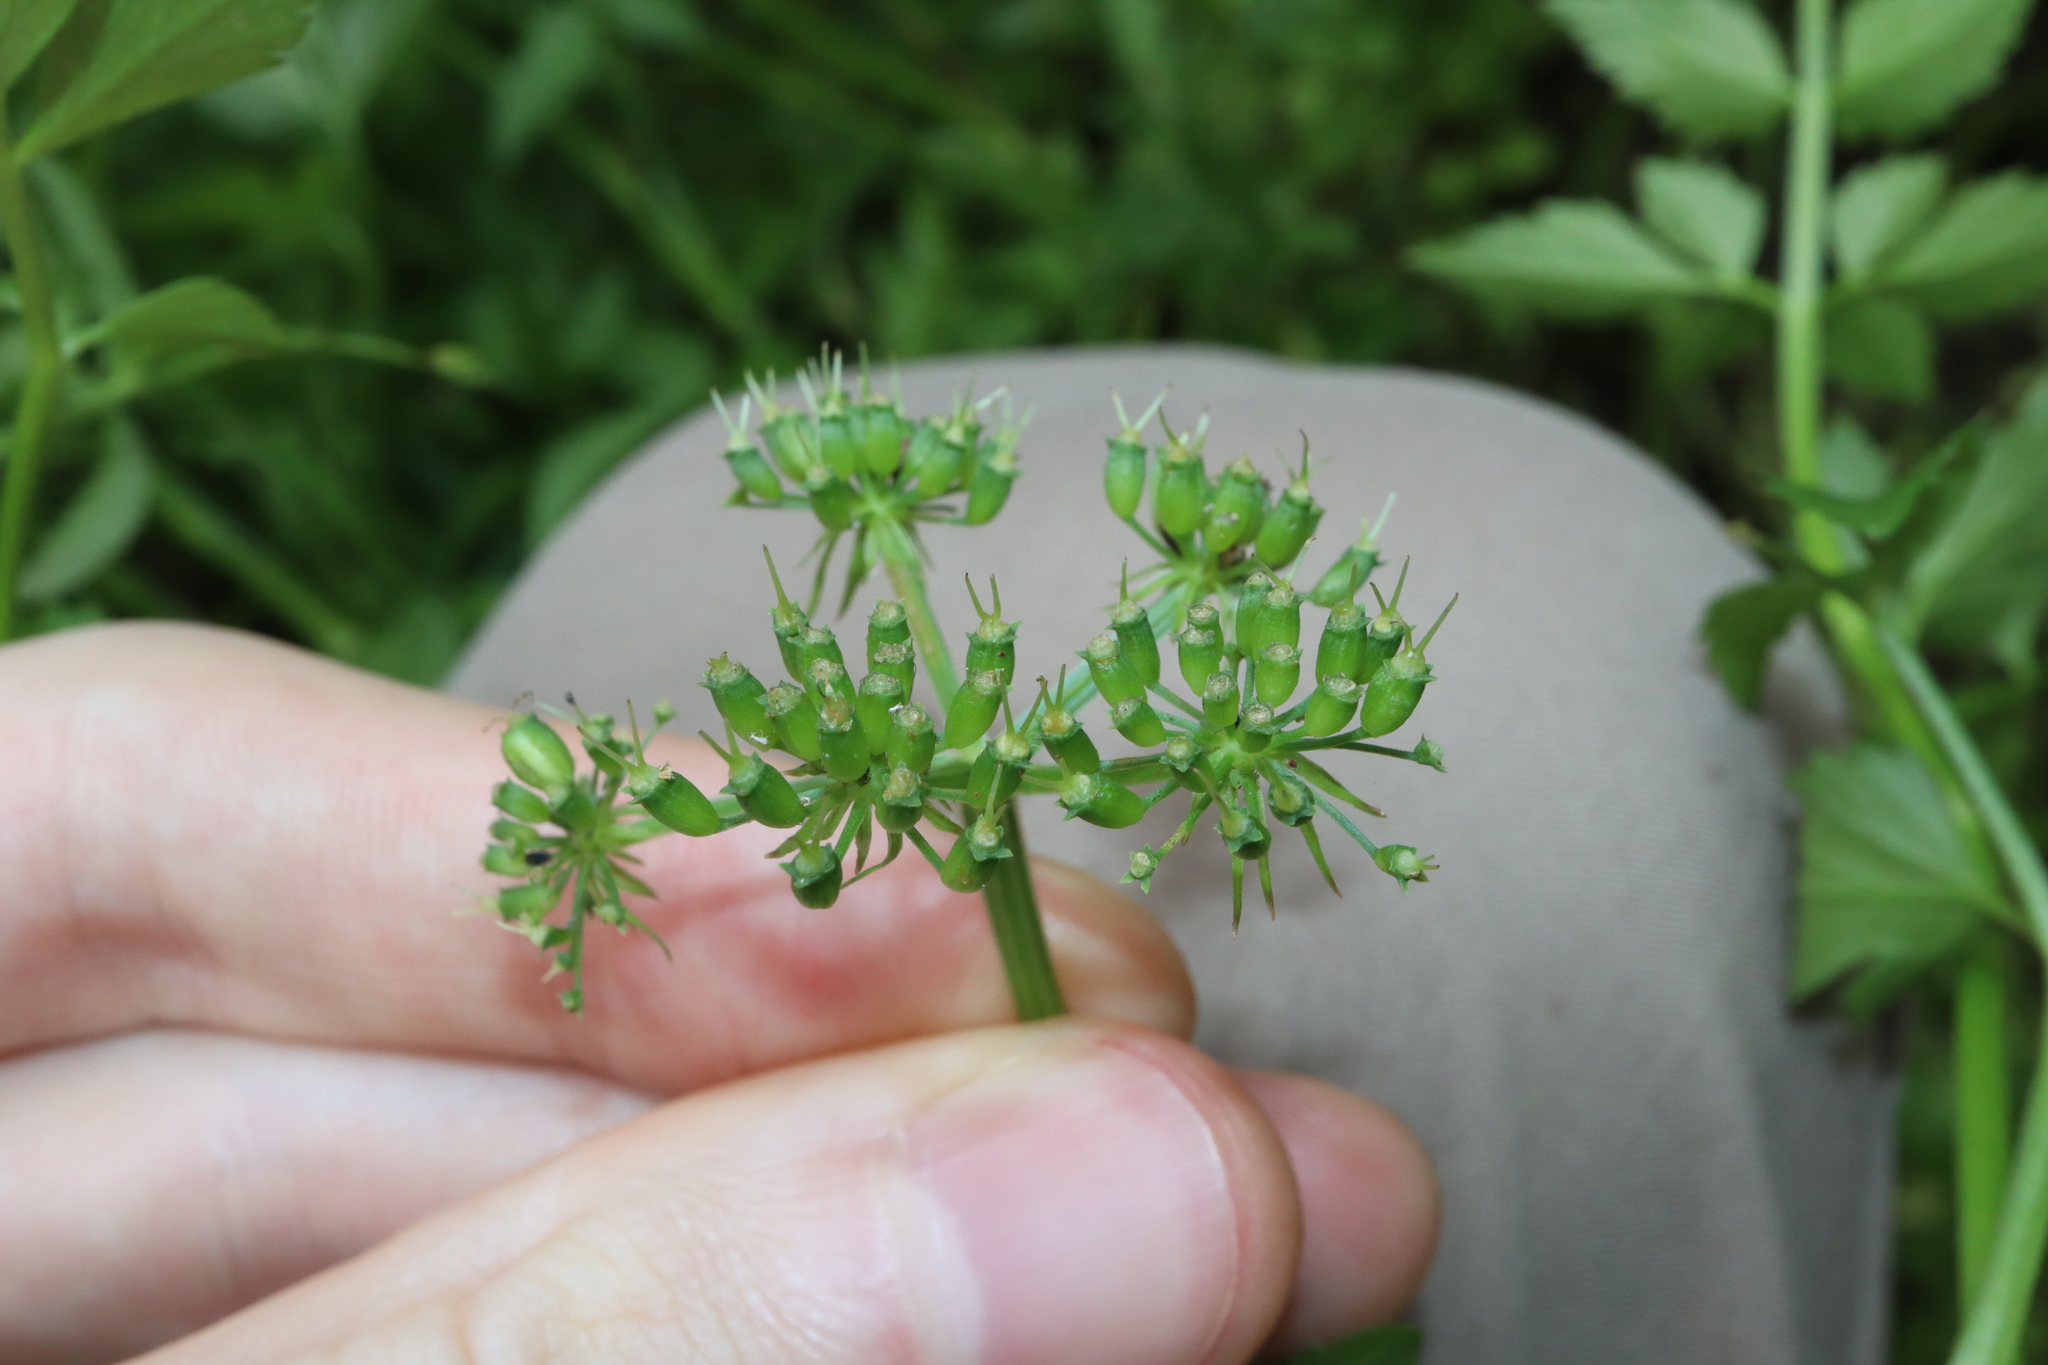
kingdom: Plantae
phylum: Tracheophyta
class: Magnoliopsida
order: Apiales
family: Apiaceae
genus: Oenanthe
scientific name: Oenanthe javanica
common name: Java water-dropwort
